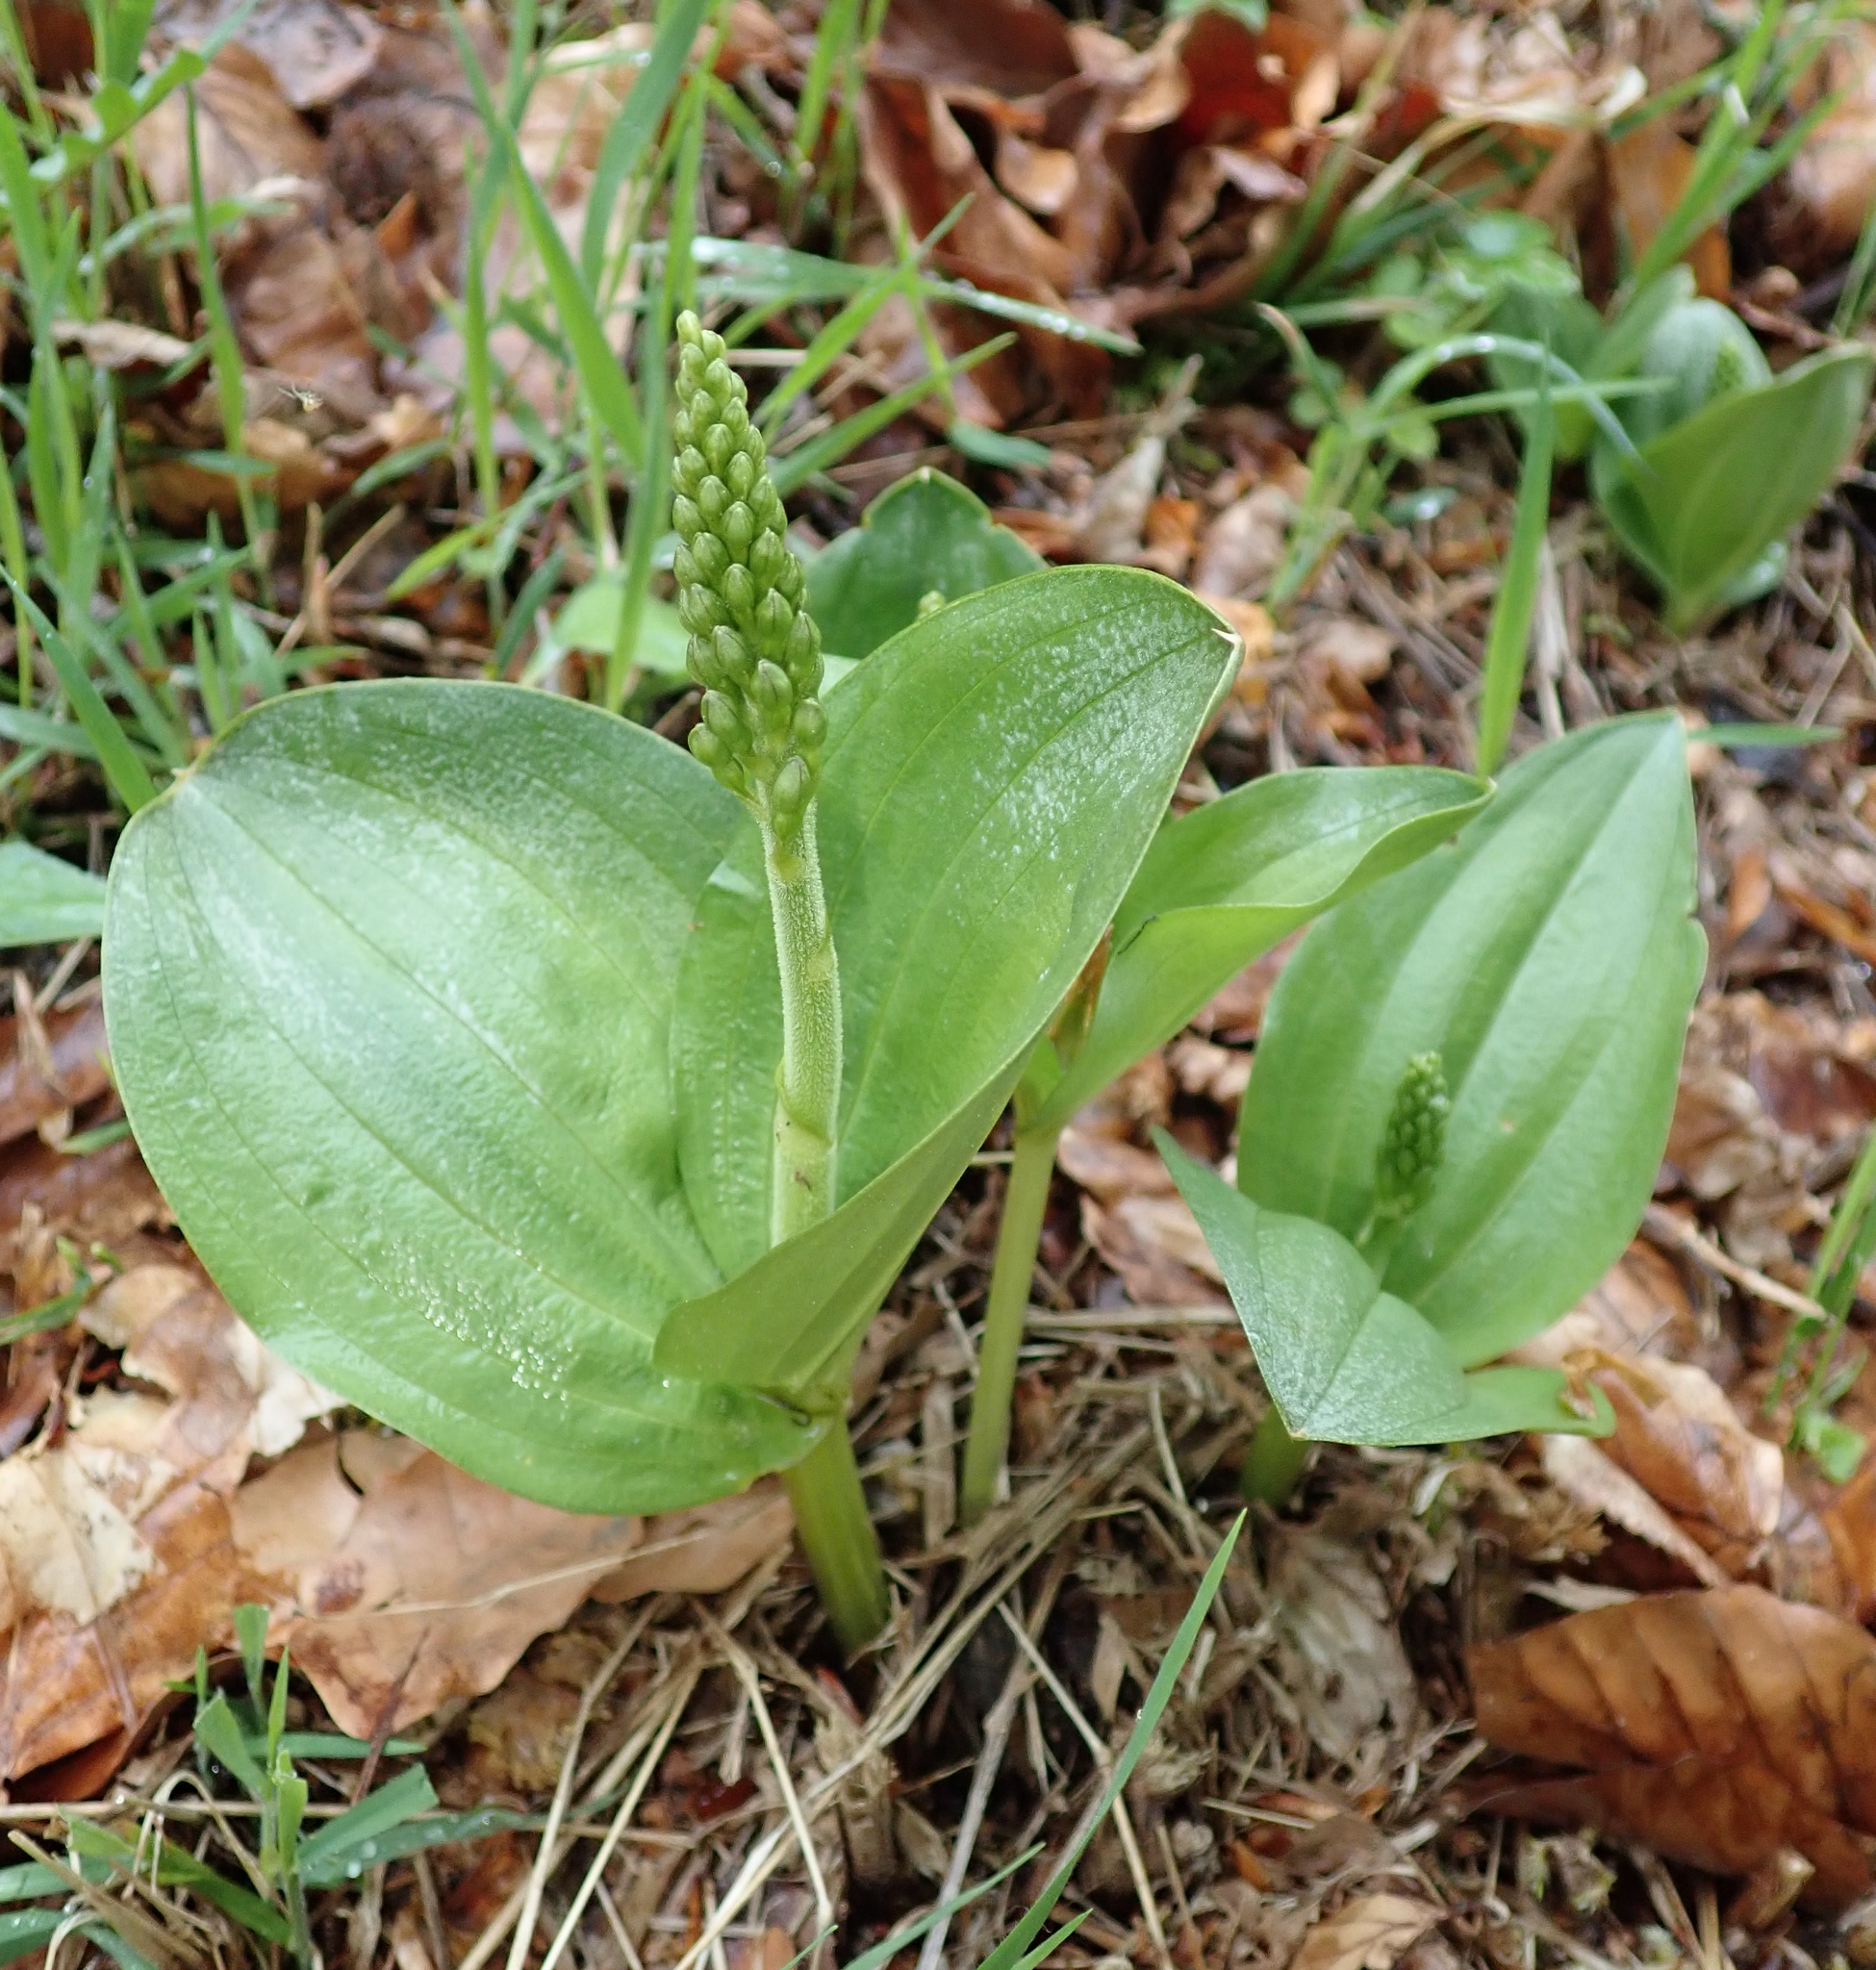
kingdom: Plantae
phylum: Tracheophyta
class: Liliopsida
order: Asparagales
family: Orchidaceae
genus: Neottia
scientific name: Neottia ovata
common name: Common twayblade
